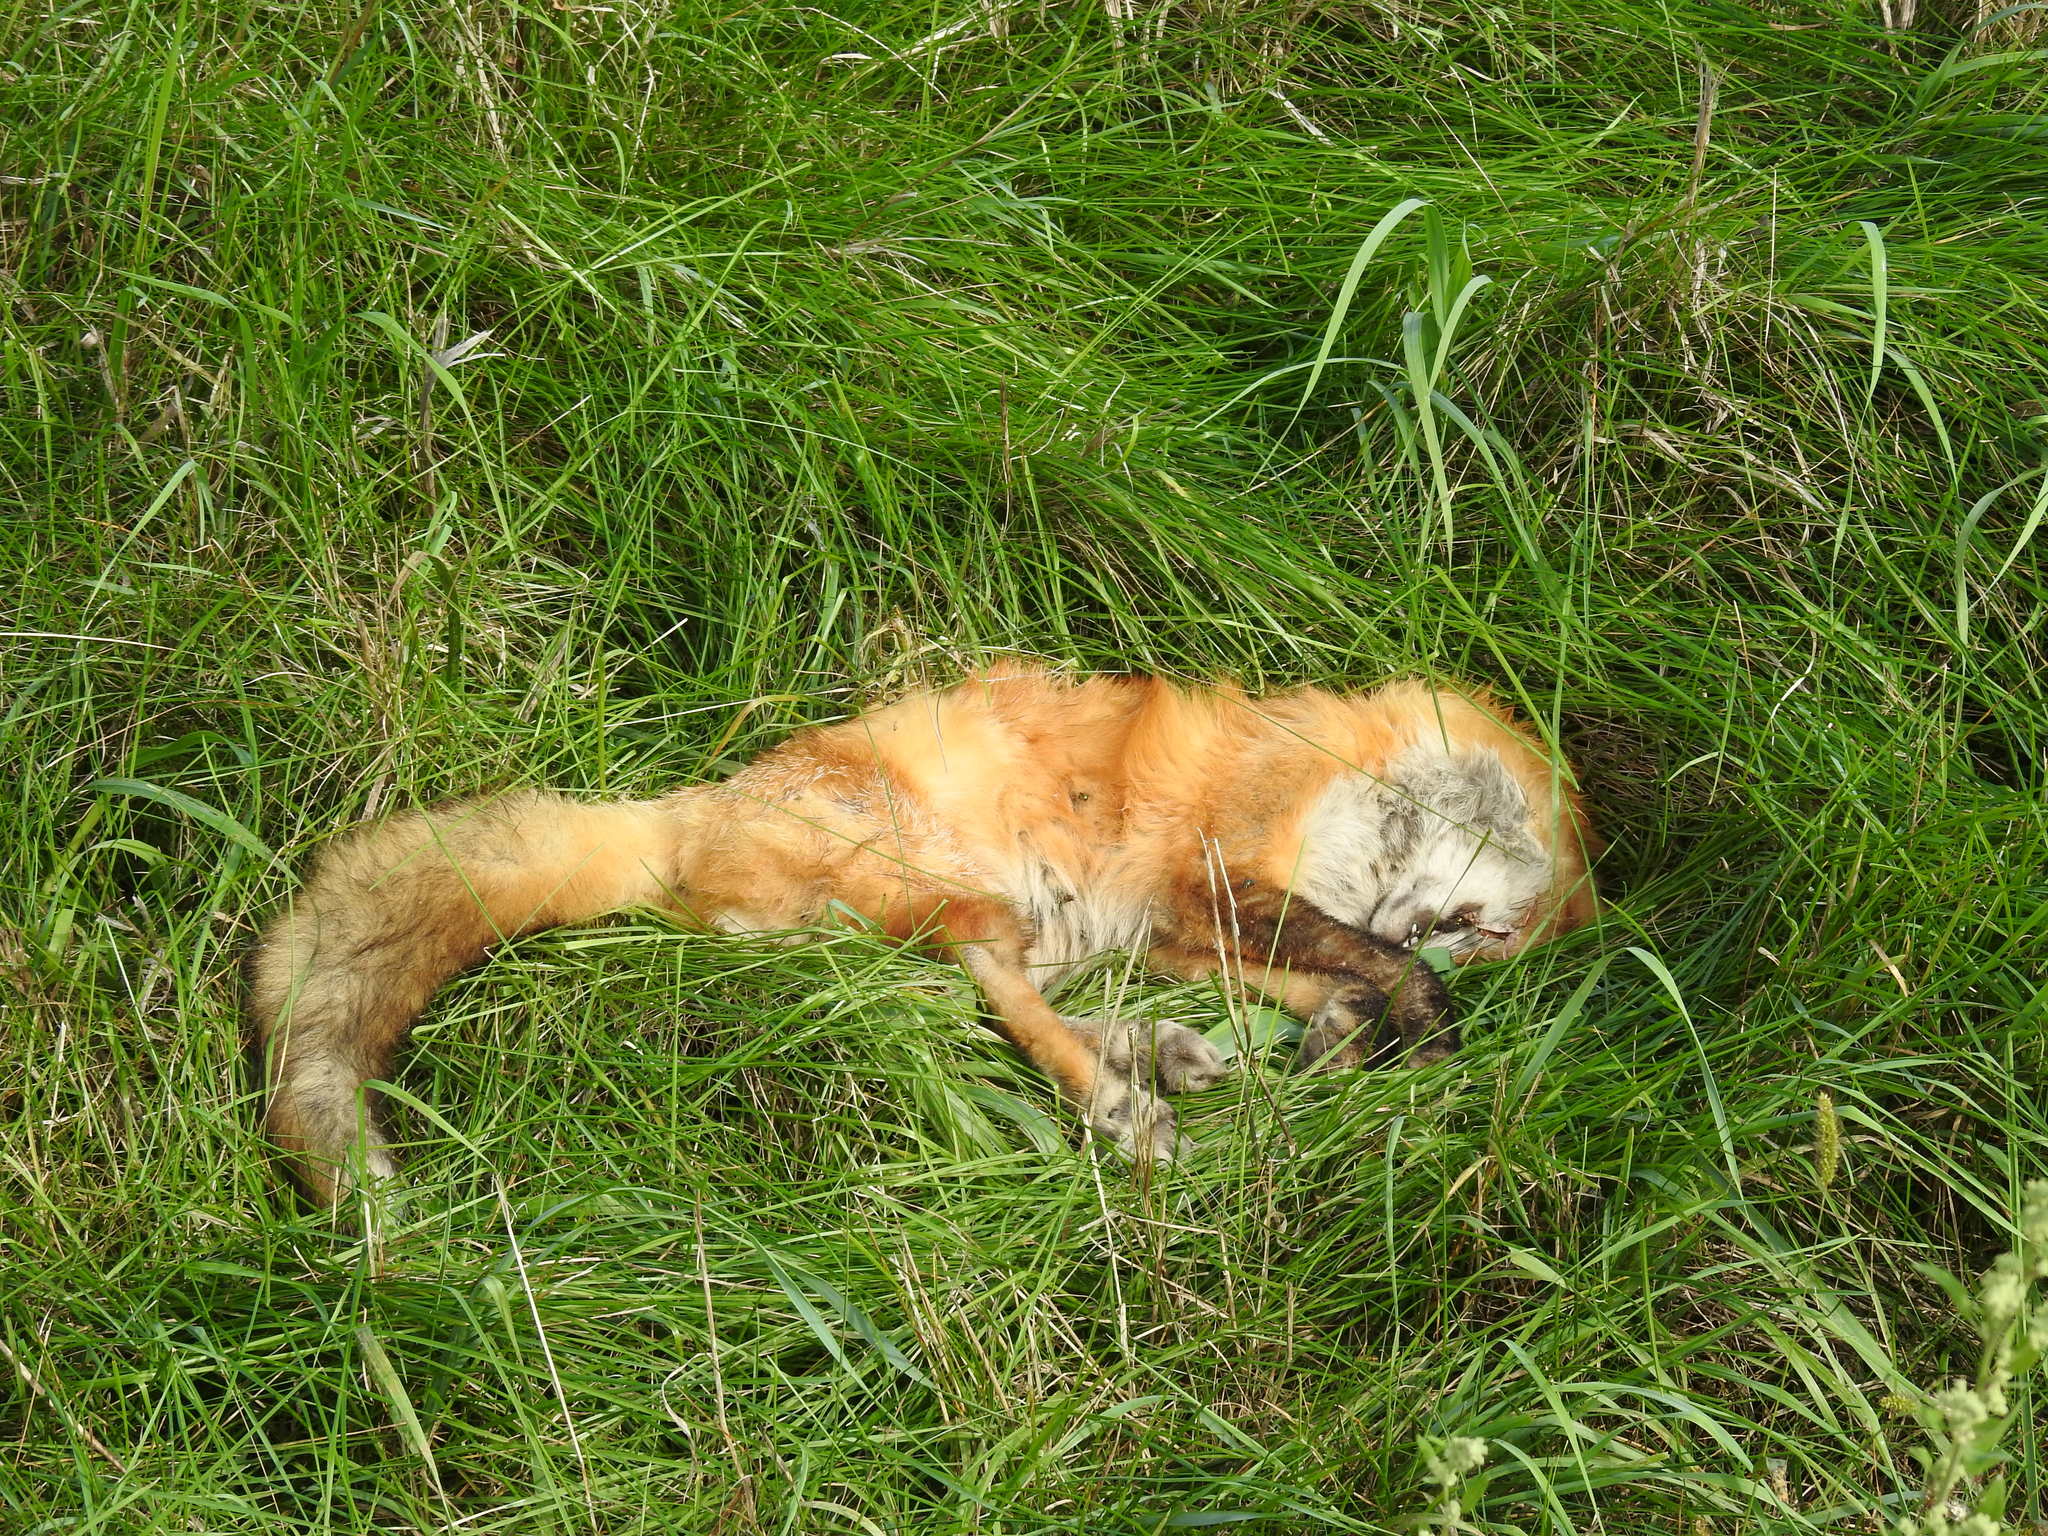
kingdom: Animalia
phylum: Chordata
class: Mammalia
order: Carnivora
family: Canidae
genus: Vulpes
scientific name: Vulpes vulpes
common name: Red fox
